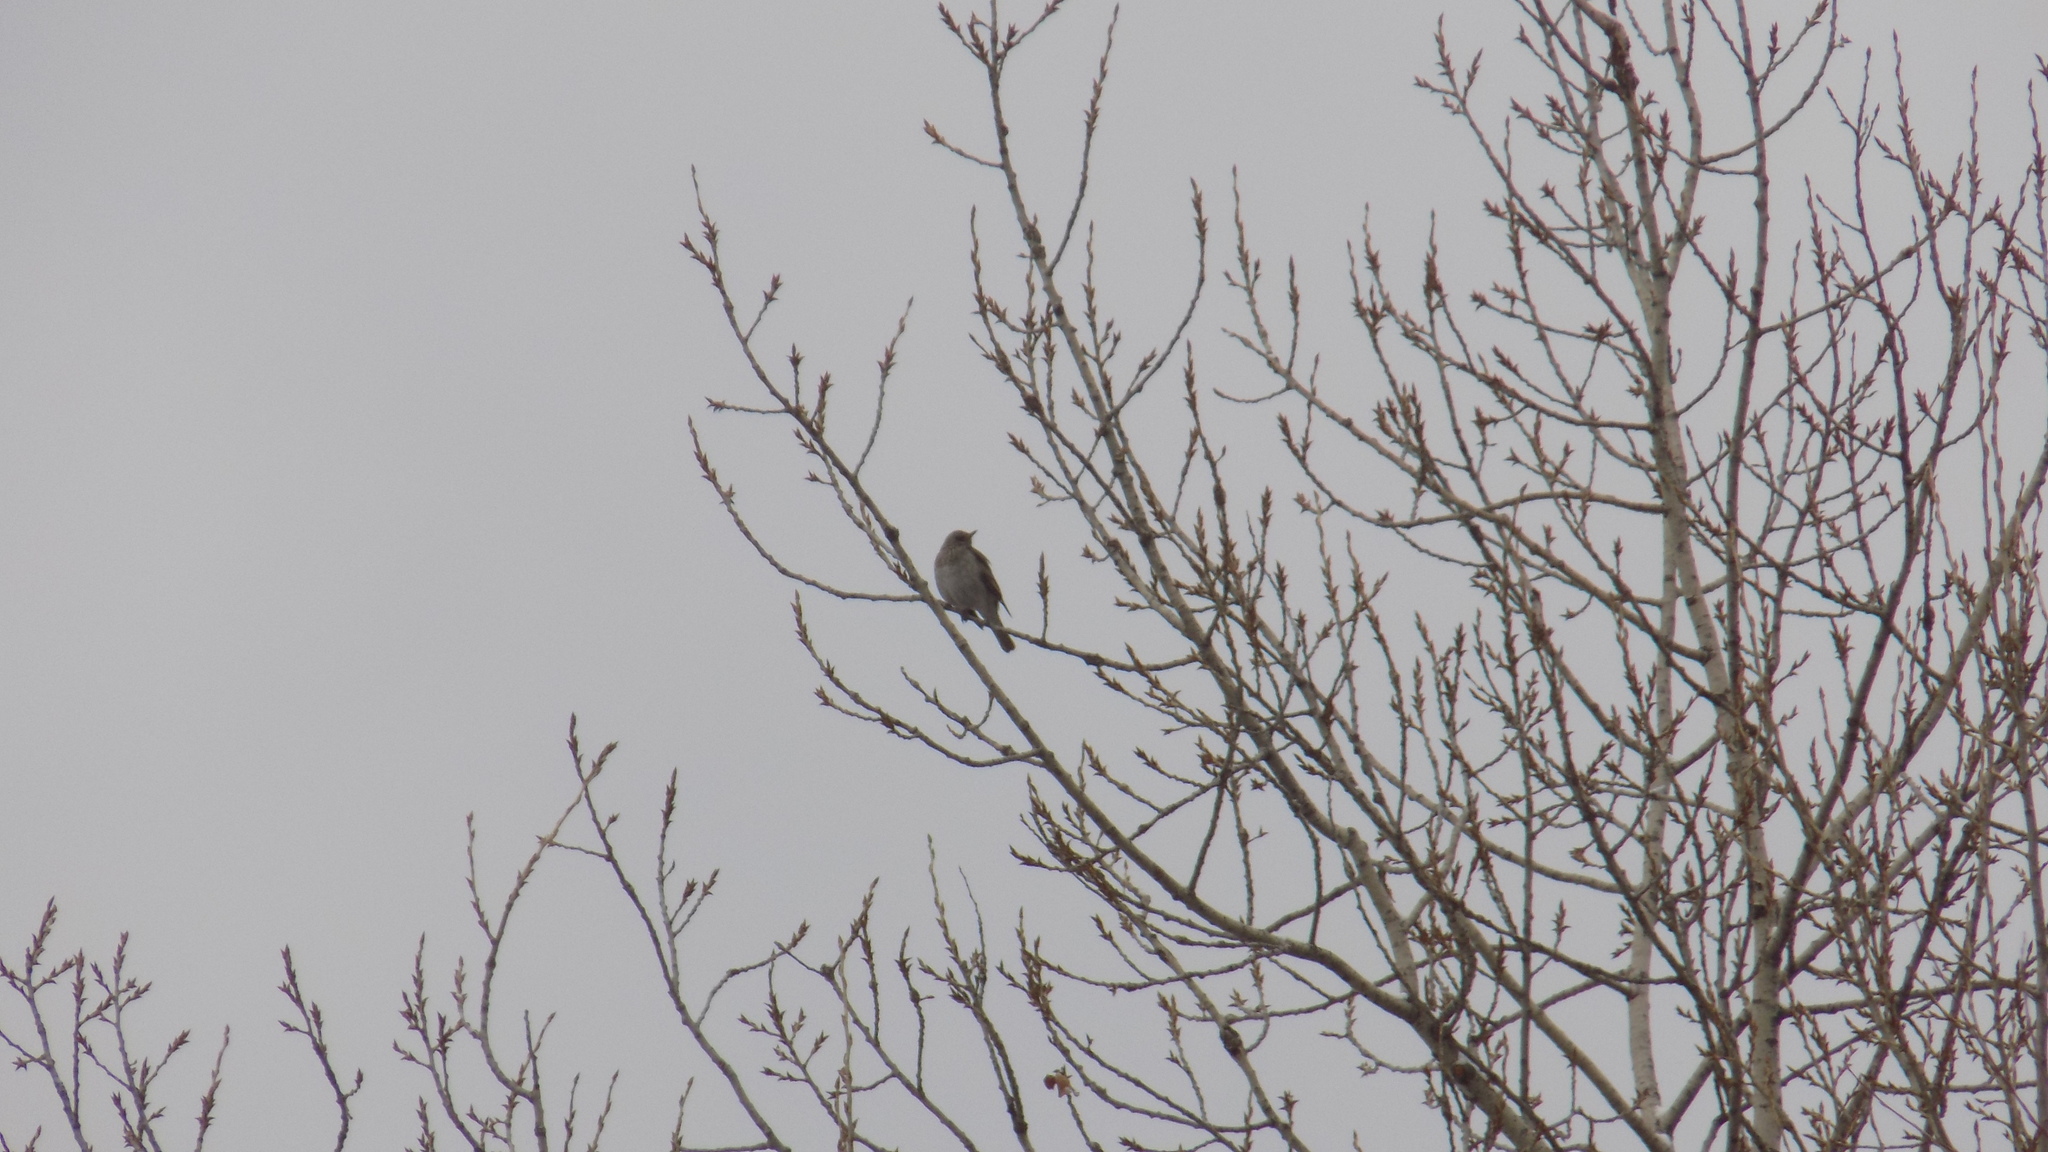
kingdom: Animalia
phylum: Chordata
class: Aves
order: Passeriformes
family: Turdidae
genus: Turdus
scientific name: Turdus atrogularis
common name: Black-throated thrush
